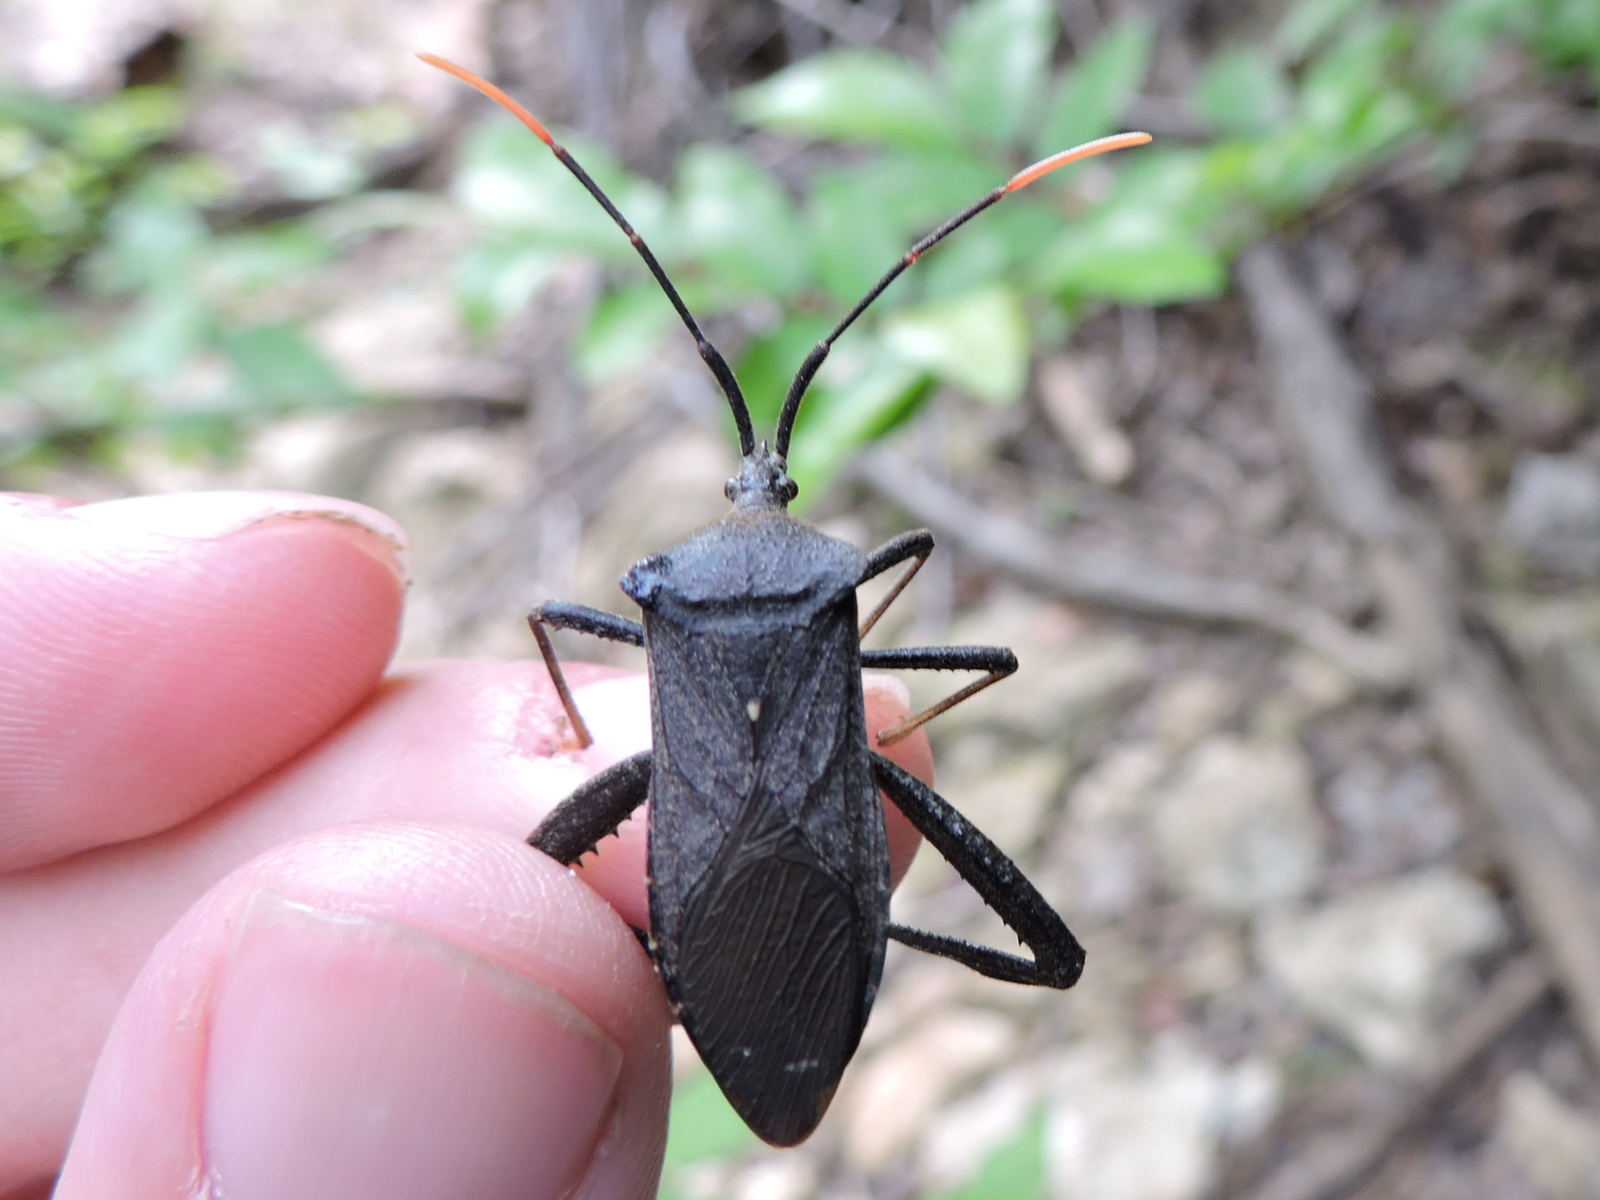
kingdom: Animalia
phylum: Arthropoda
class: Insecta
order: Hemiptera
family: Coreidae
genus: Acanthocephala
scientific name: Acanthocephala terminalis
